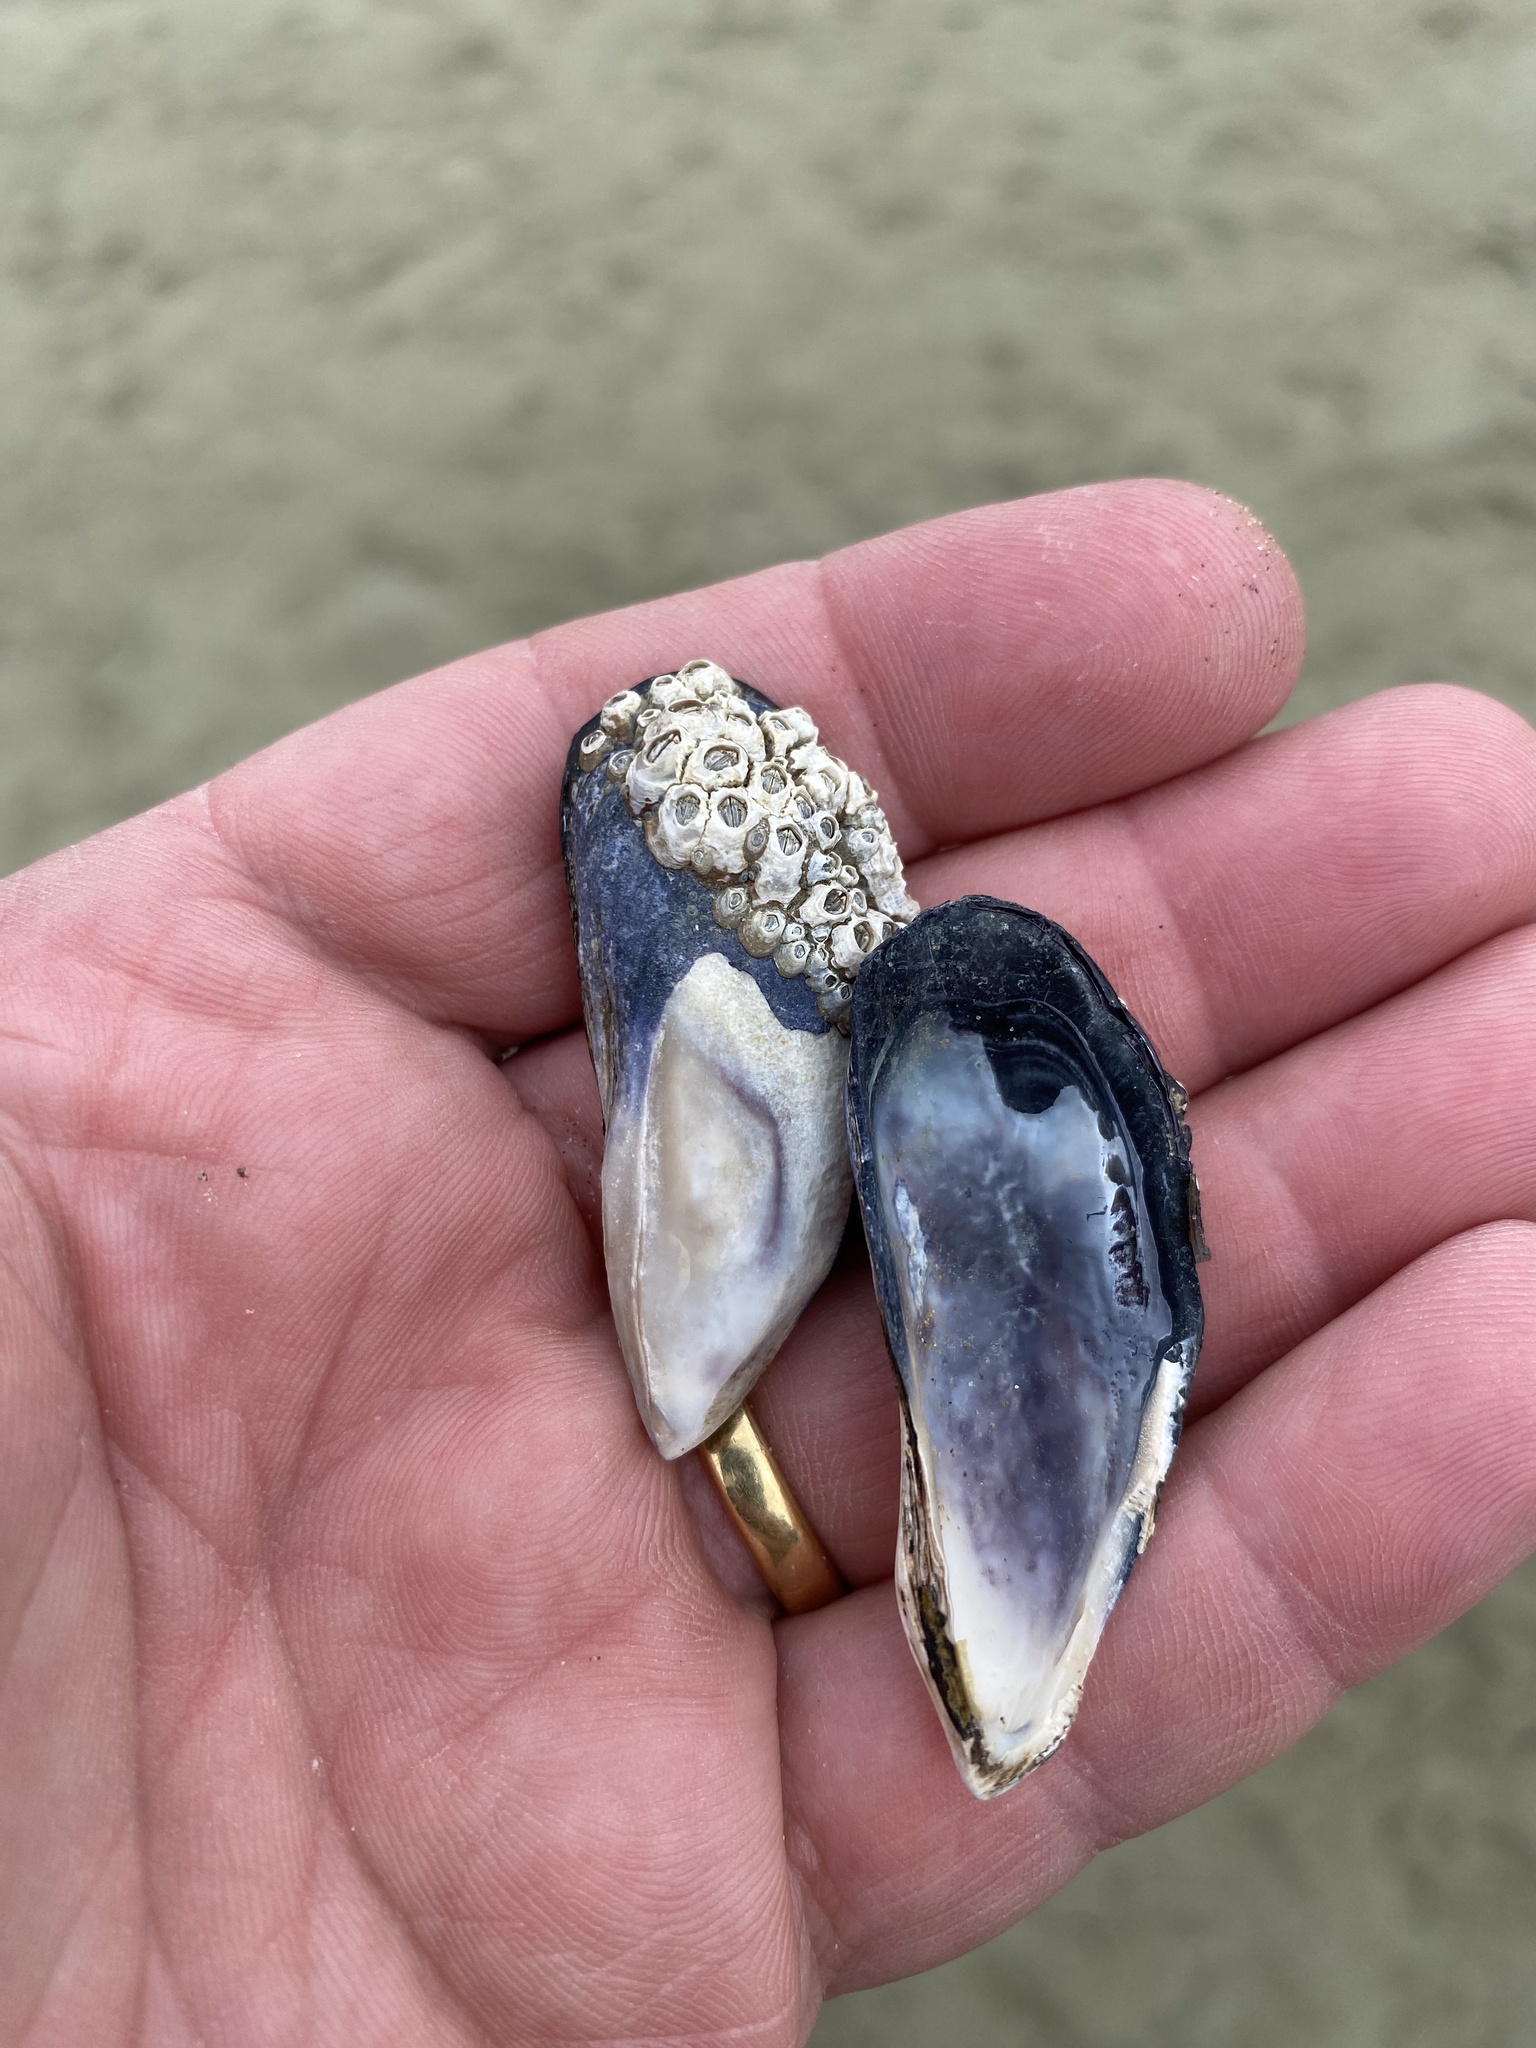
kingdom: Animalia
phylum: Mollusca
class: Bivalvia
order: Mytilida
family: Mytilidae
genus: Mytilus
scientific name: Mytilus planulatus
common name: Australian mussel
